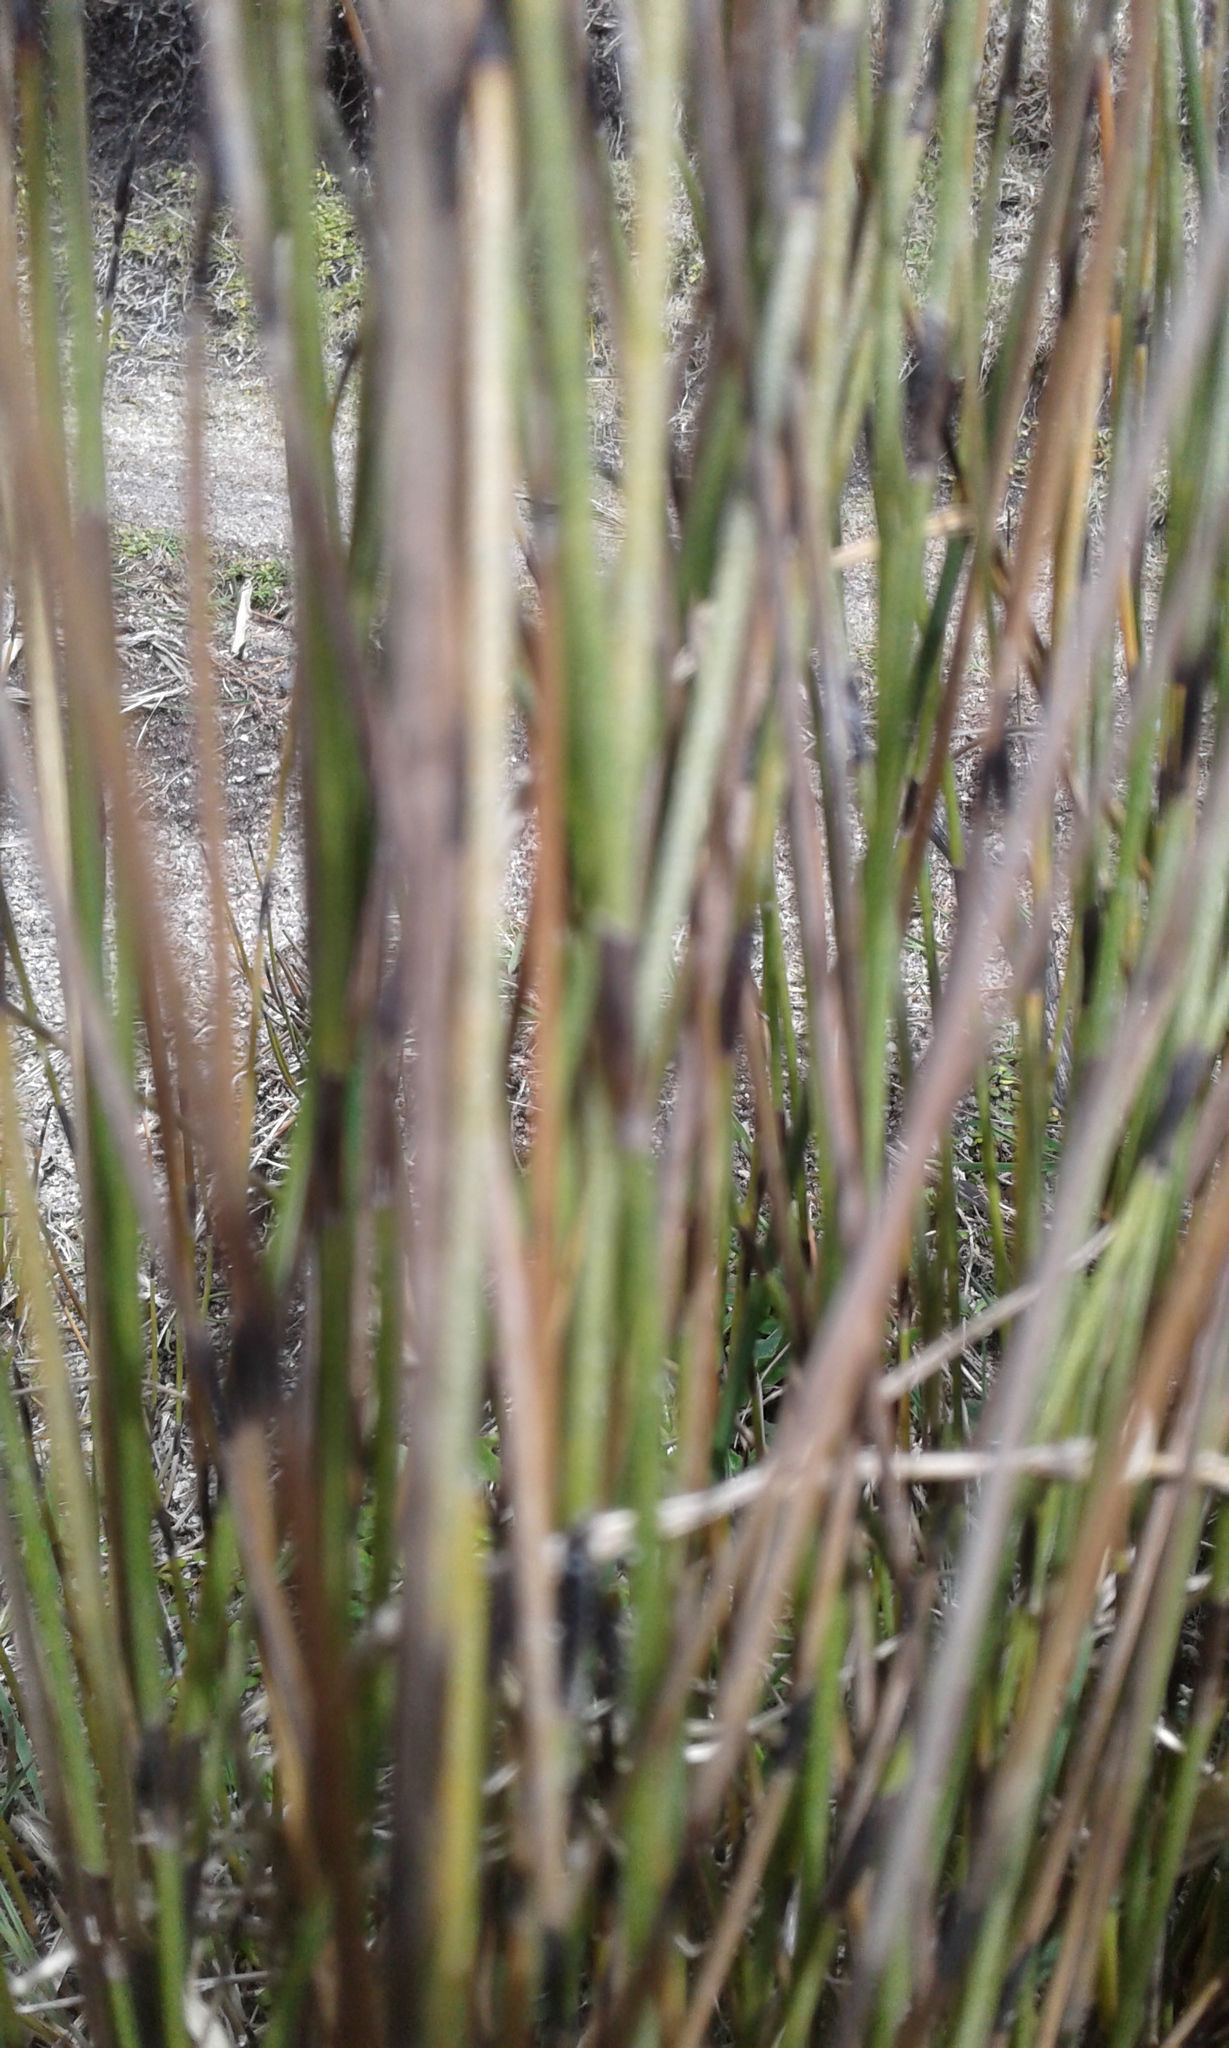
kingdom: Plantae
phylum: Tracheophyta
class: Liliopsida
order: Poales
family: Restionaceae
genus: Apodasmia
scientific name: Apodasmia similis
